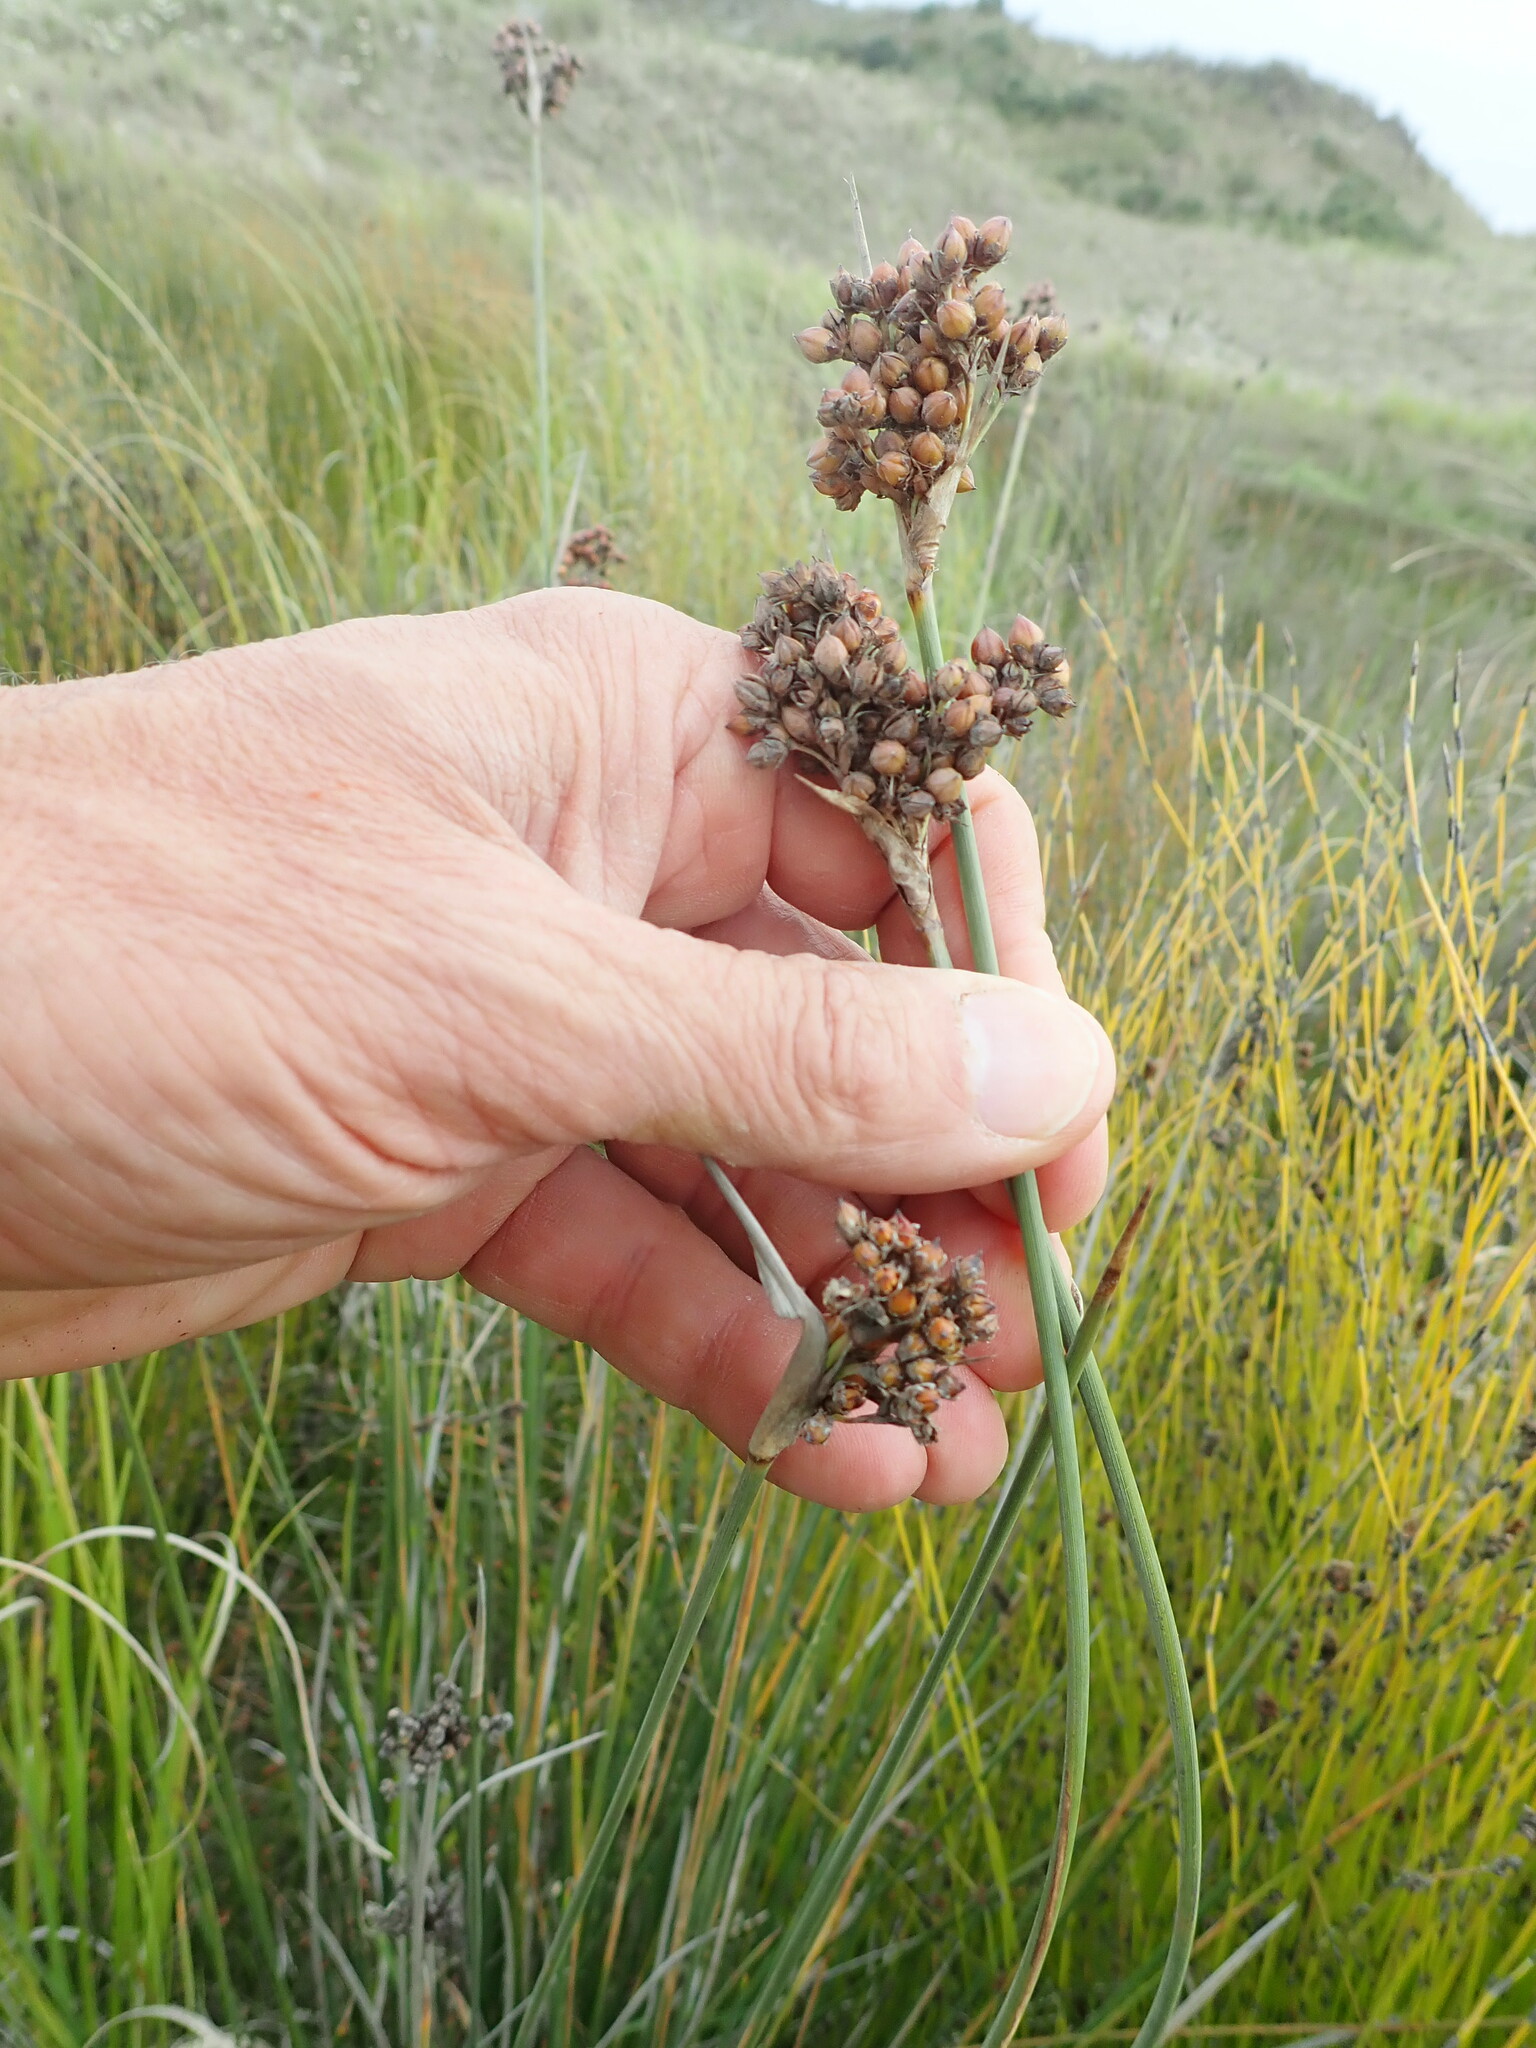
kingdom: Plantae
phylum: Tracheophyta
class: Liliopsida
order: Poales
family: Juncaceae
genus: Juncus
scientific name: Juncus acutus
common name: Sharp rush
